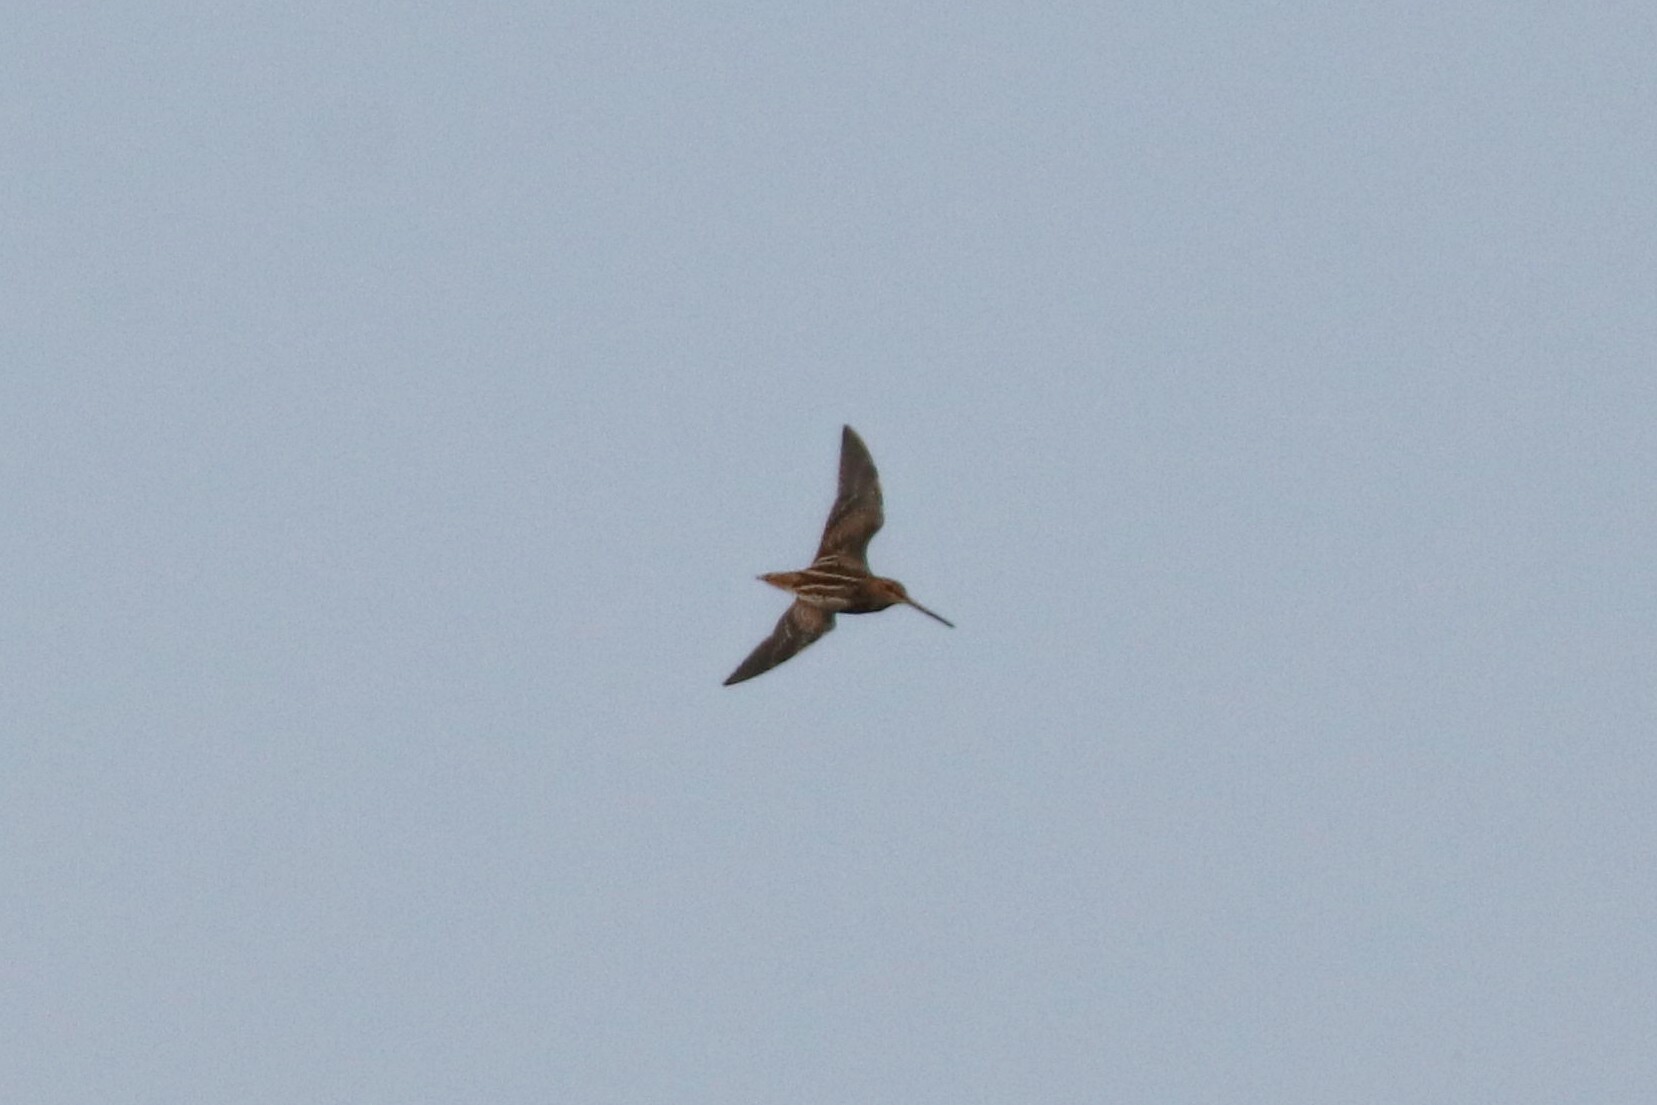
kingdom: Animalia
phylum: Chordata
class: Aves
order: Charadriiformes
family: Scolopacidae
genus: Gallinago
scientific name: Gallinago gallinago
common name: Common snipe
